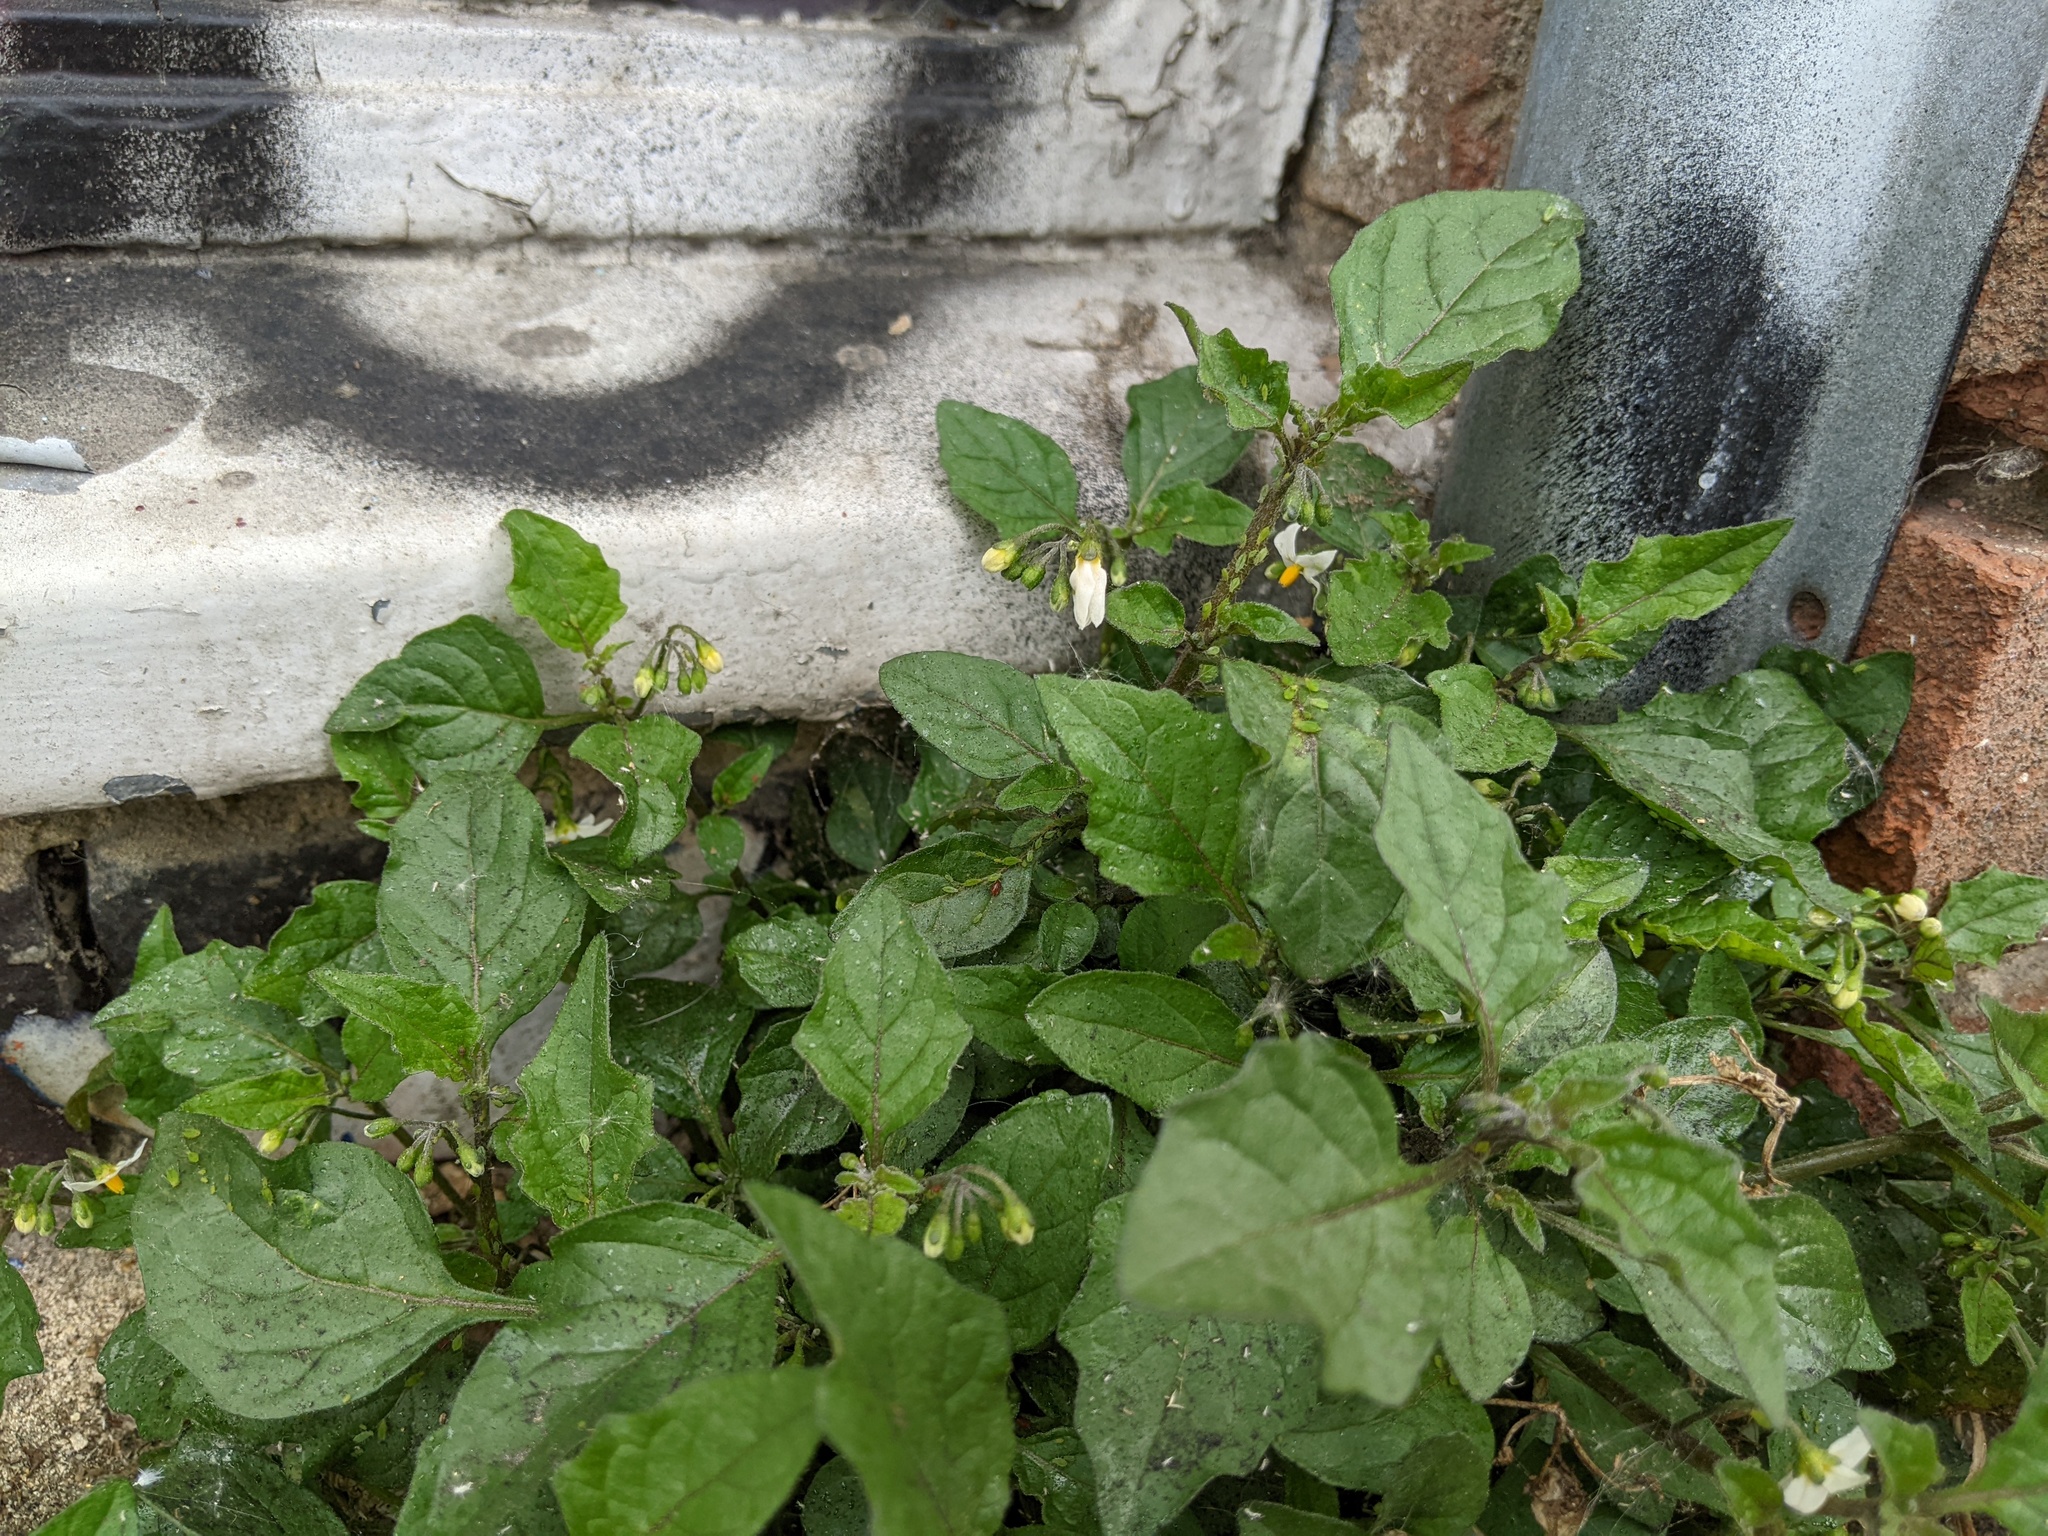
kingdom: Plantae
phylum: Tracheophyta
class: Magnoliopsida
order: Solanales
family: Solanaceae
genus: Solanum
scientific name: Solanum nigrum
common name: Black nightshade
